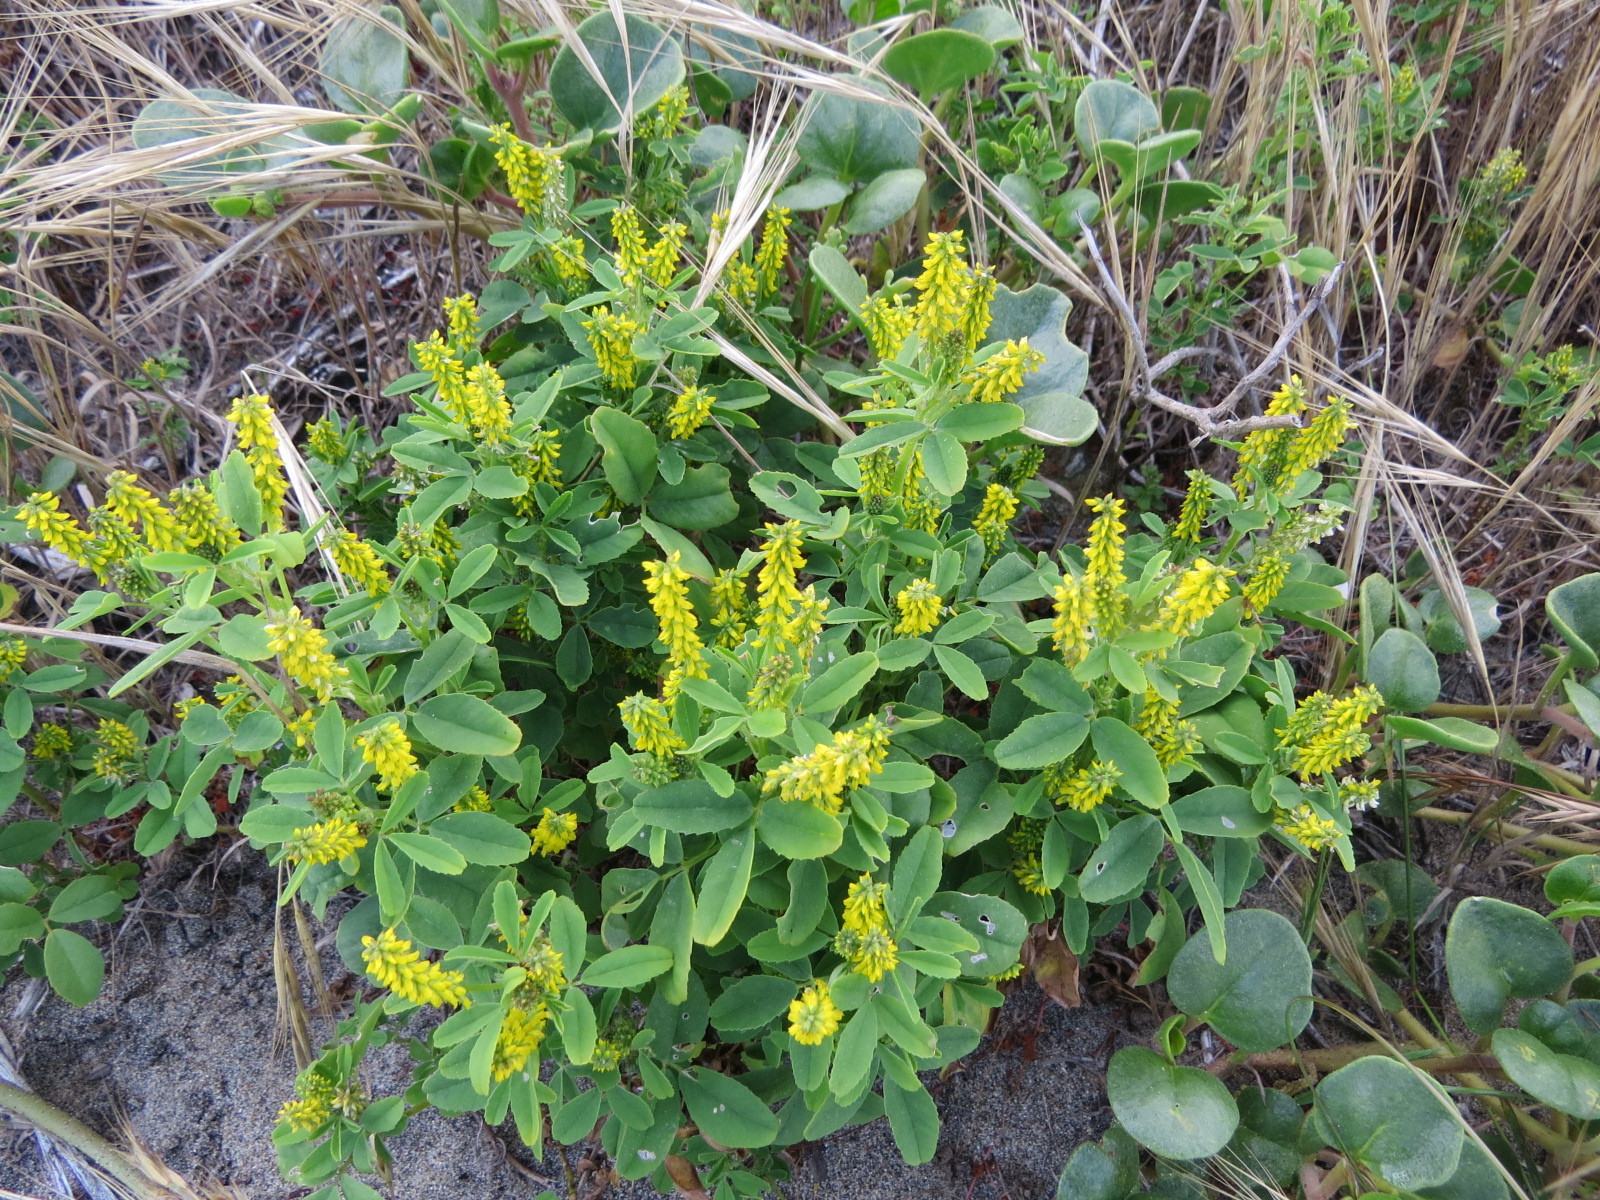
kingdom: Plantae
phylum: Tracheophyta
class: Magnoliopsida
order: Fabales
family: Fabaceae
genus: Melilotus
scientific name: Melilotus indicus
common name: Small melilot
